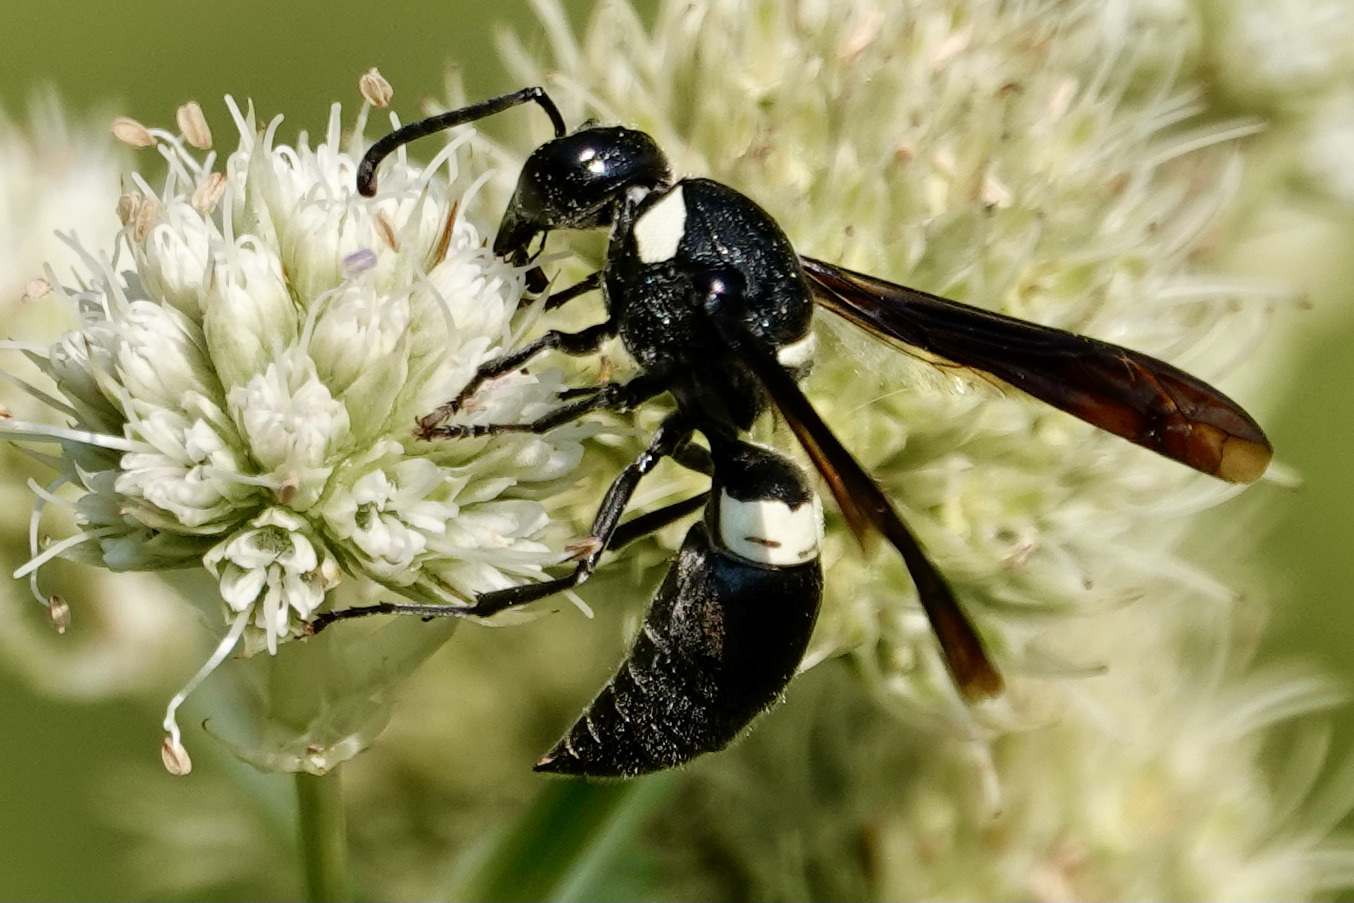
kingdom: Animalia
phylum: Arthropoda
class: Insecta
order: Hymenoptera
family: Eumenidae
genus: Monobia
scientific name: Monobia quadridens
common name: Four-toothed mason wasp
